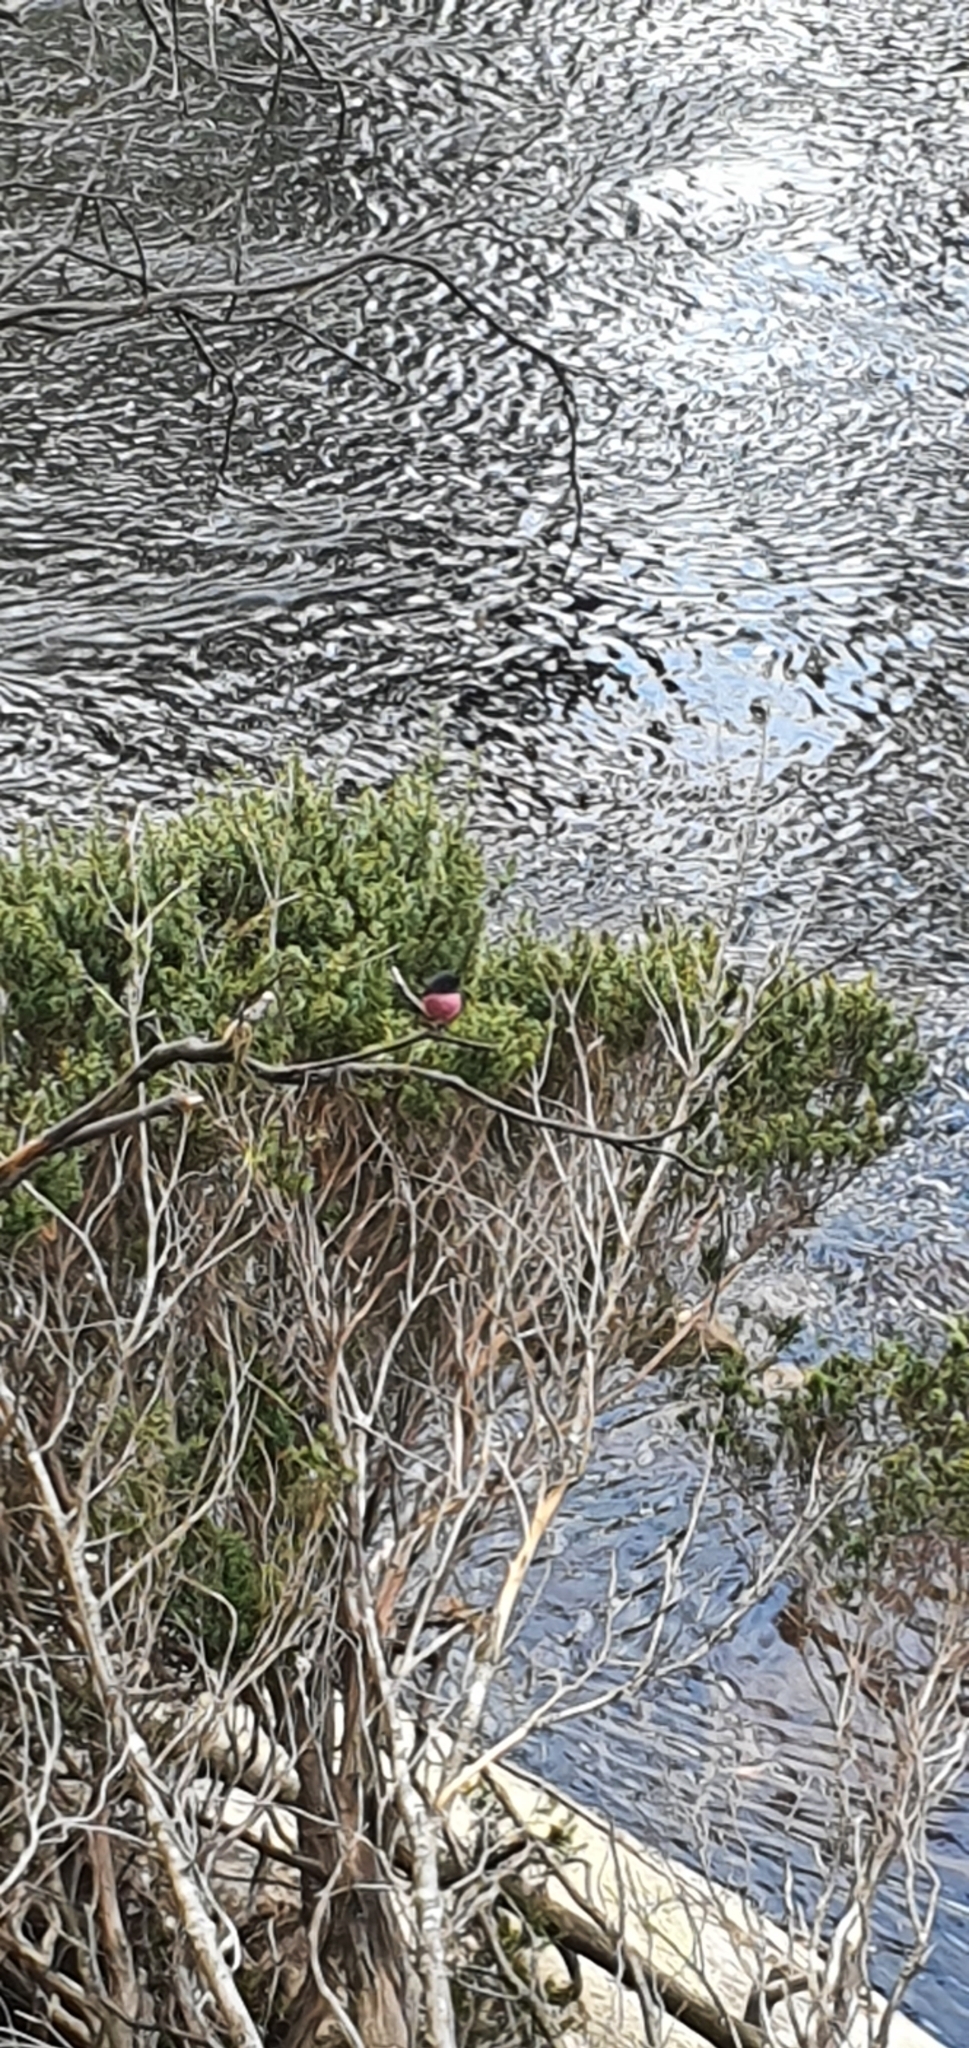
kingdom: Animalia
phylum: Chordata
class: Aves
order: Passeriformes
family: Petroicidae
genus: Petroica
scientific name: Petroica rodinogaster
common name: Pink robin
